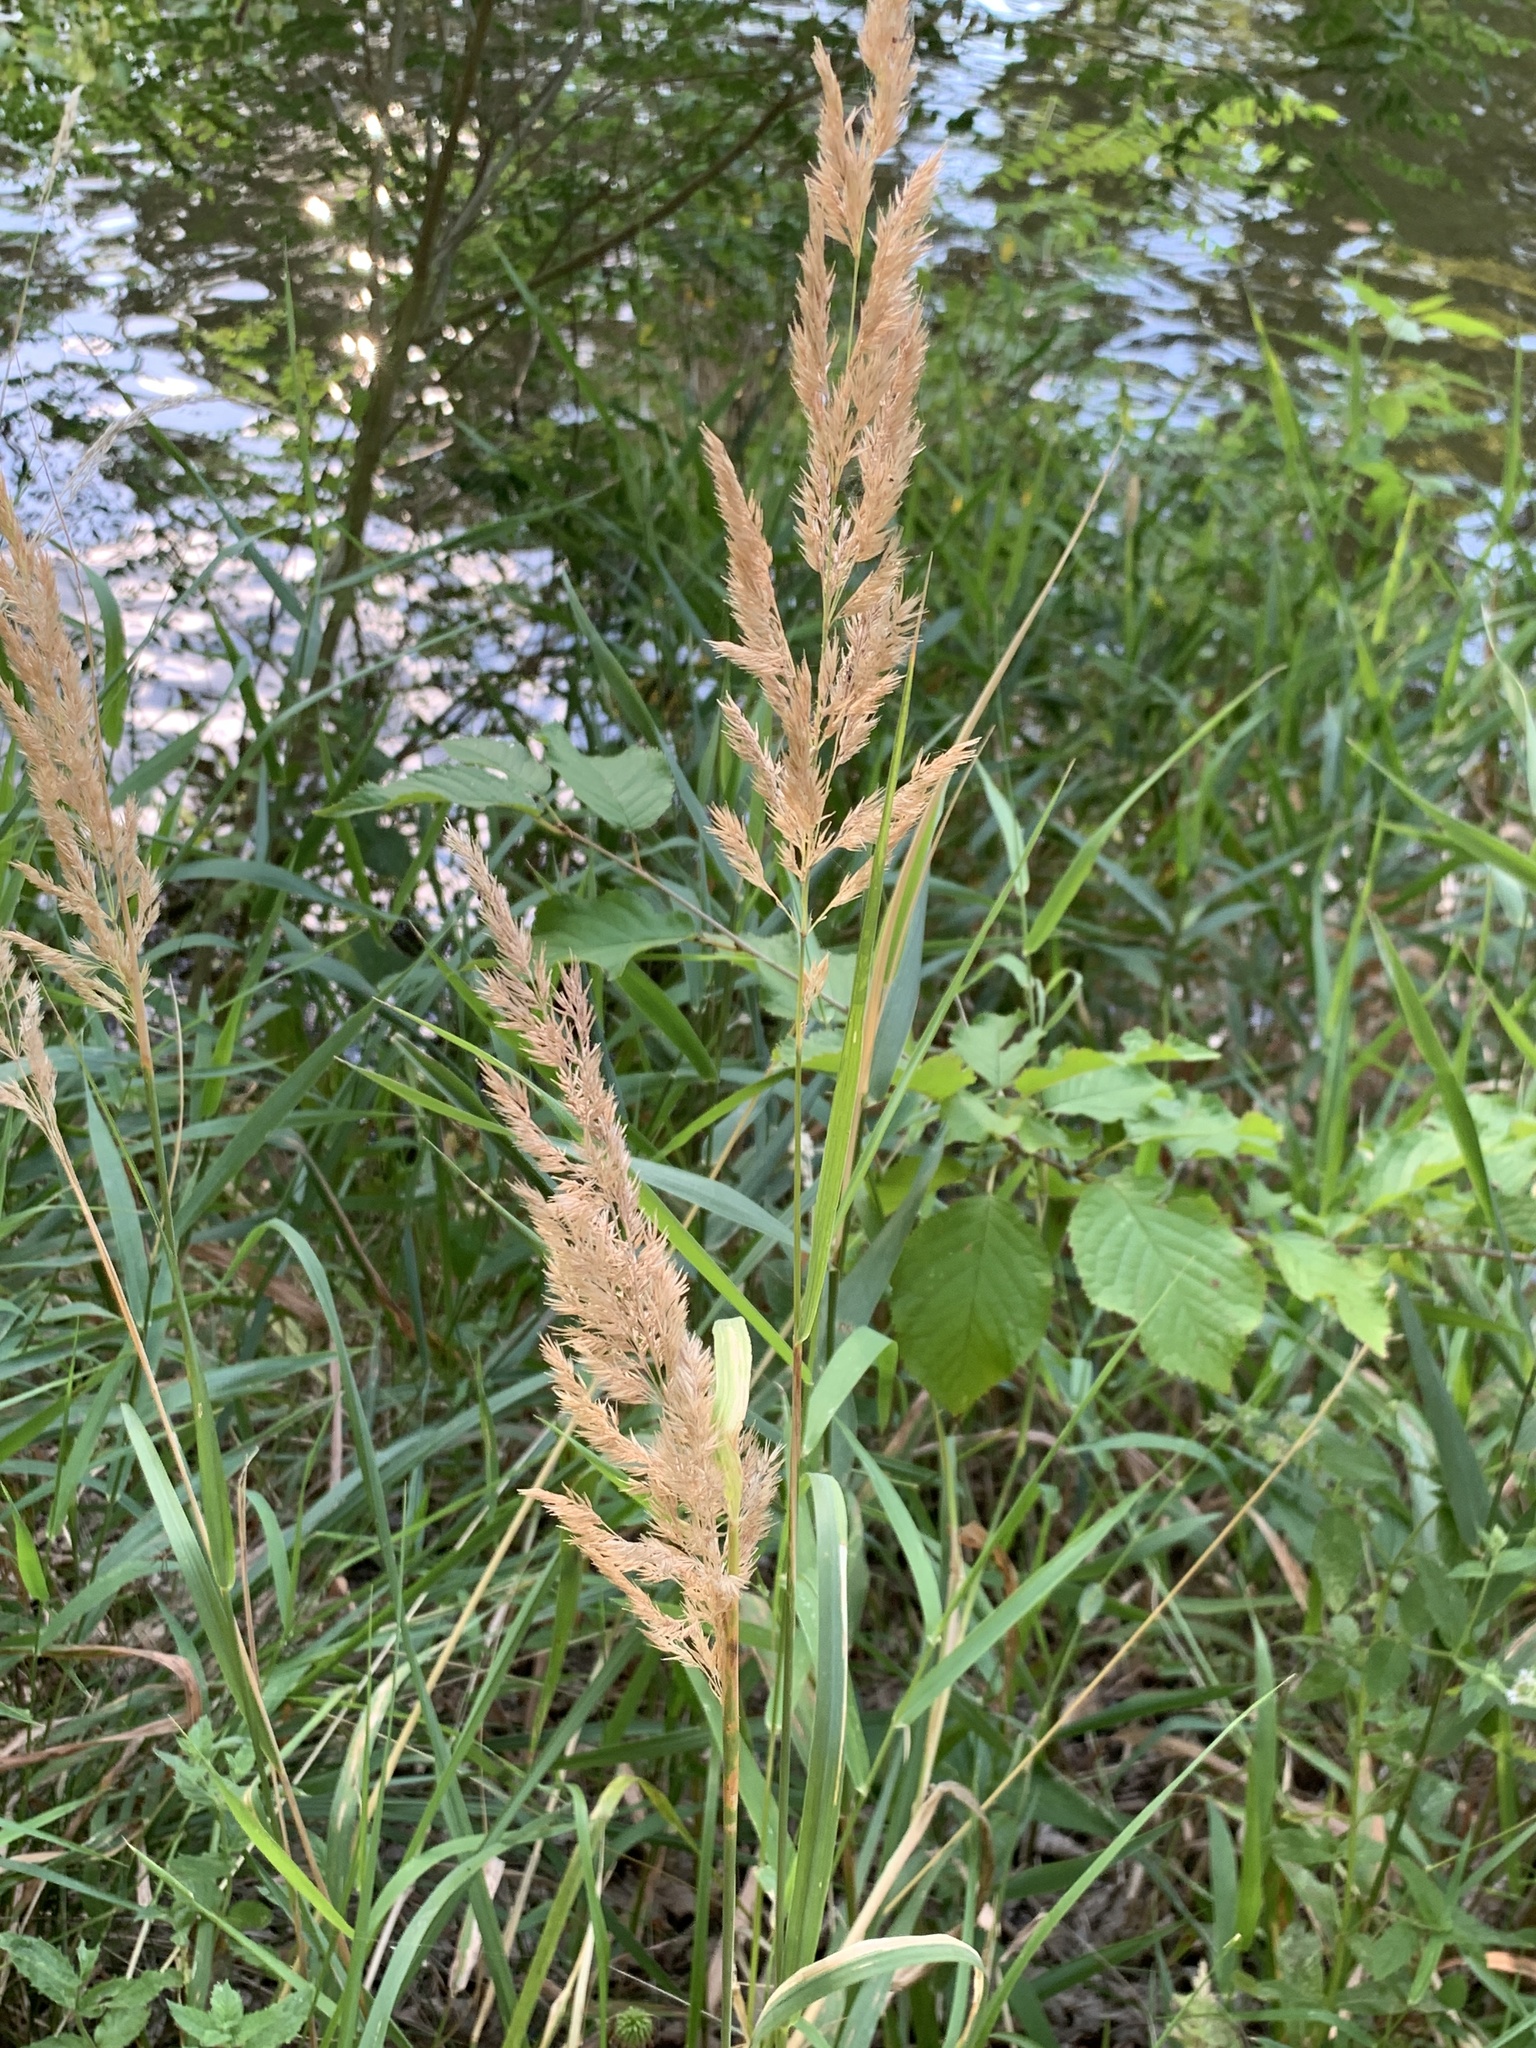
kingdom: Plantae
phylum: Tracheophyta
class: Liliopsida
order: Poales
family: Poaceae
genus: Calamagrostis
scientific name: Calamagrostis epigejos
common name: Wood small-reed
